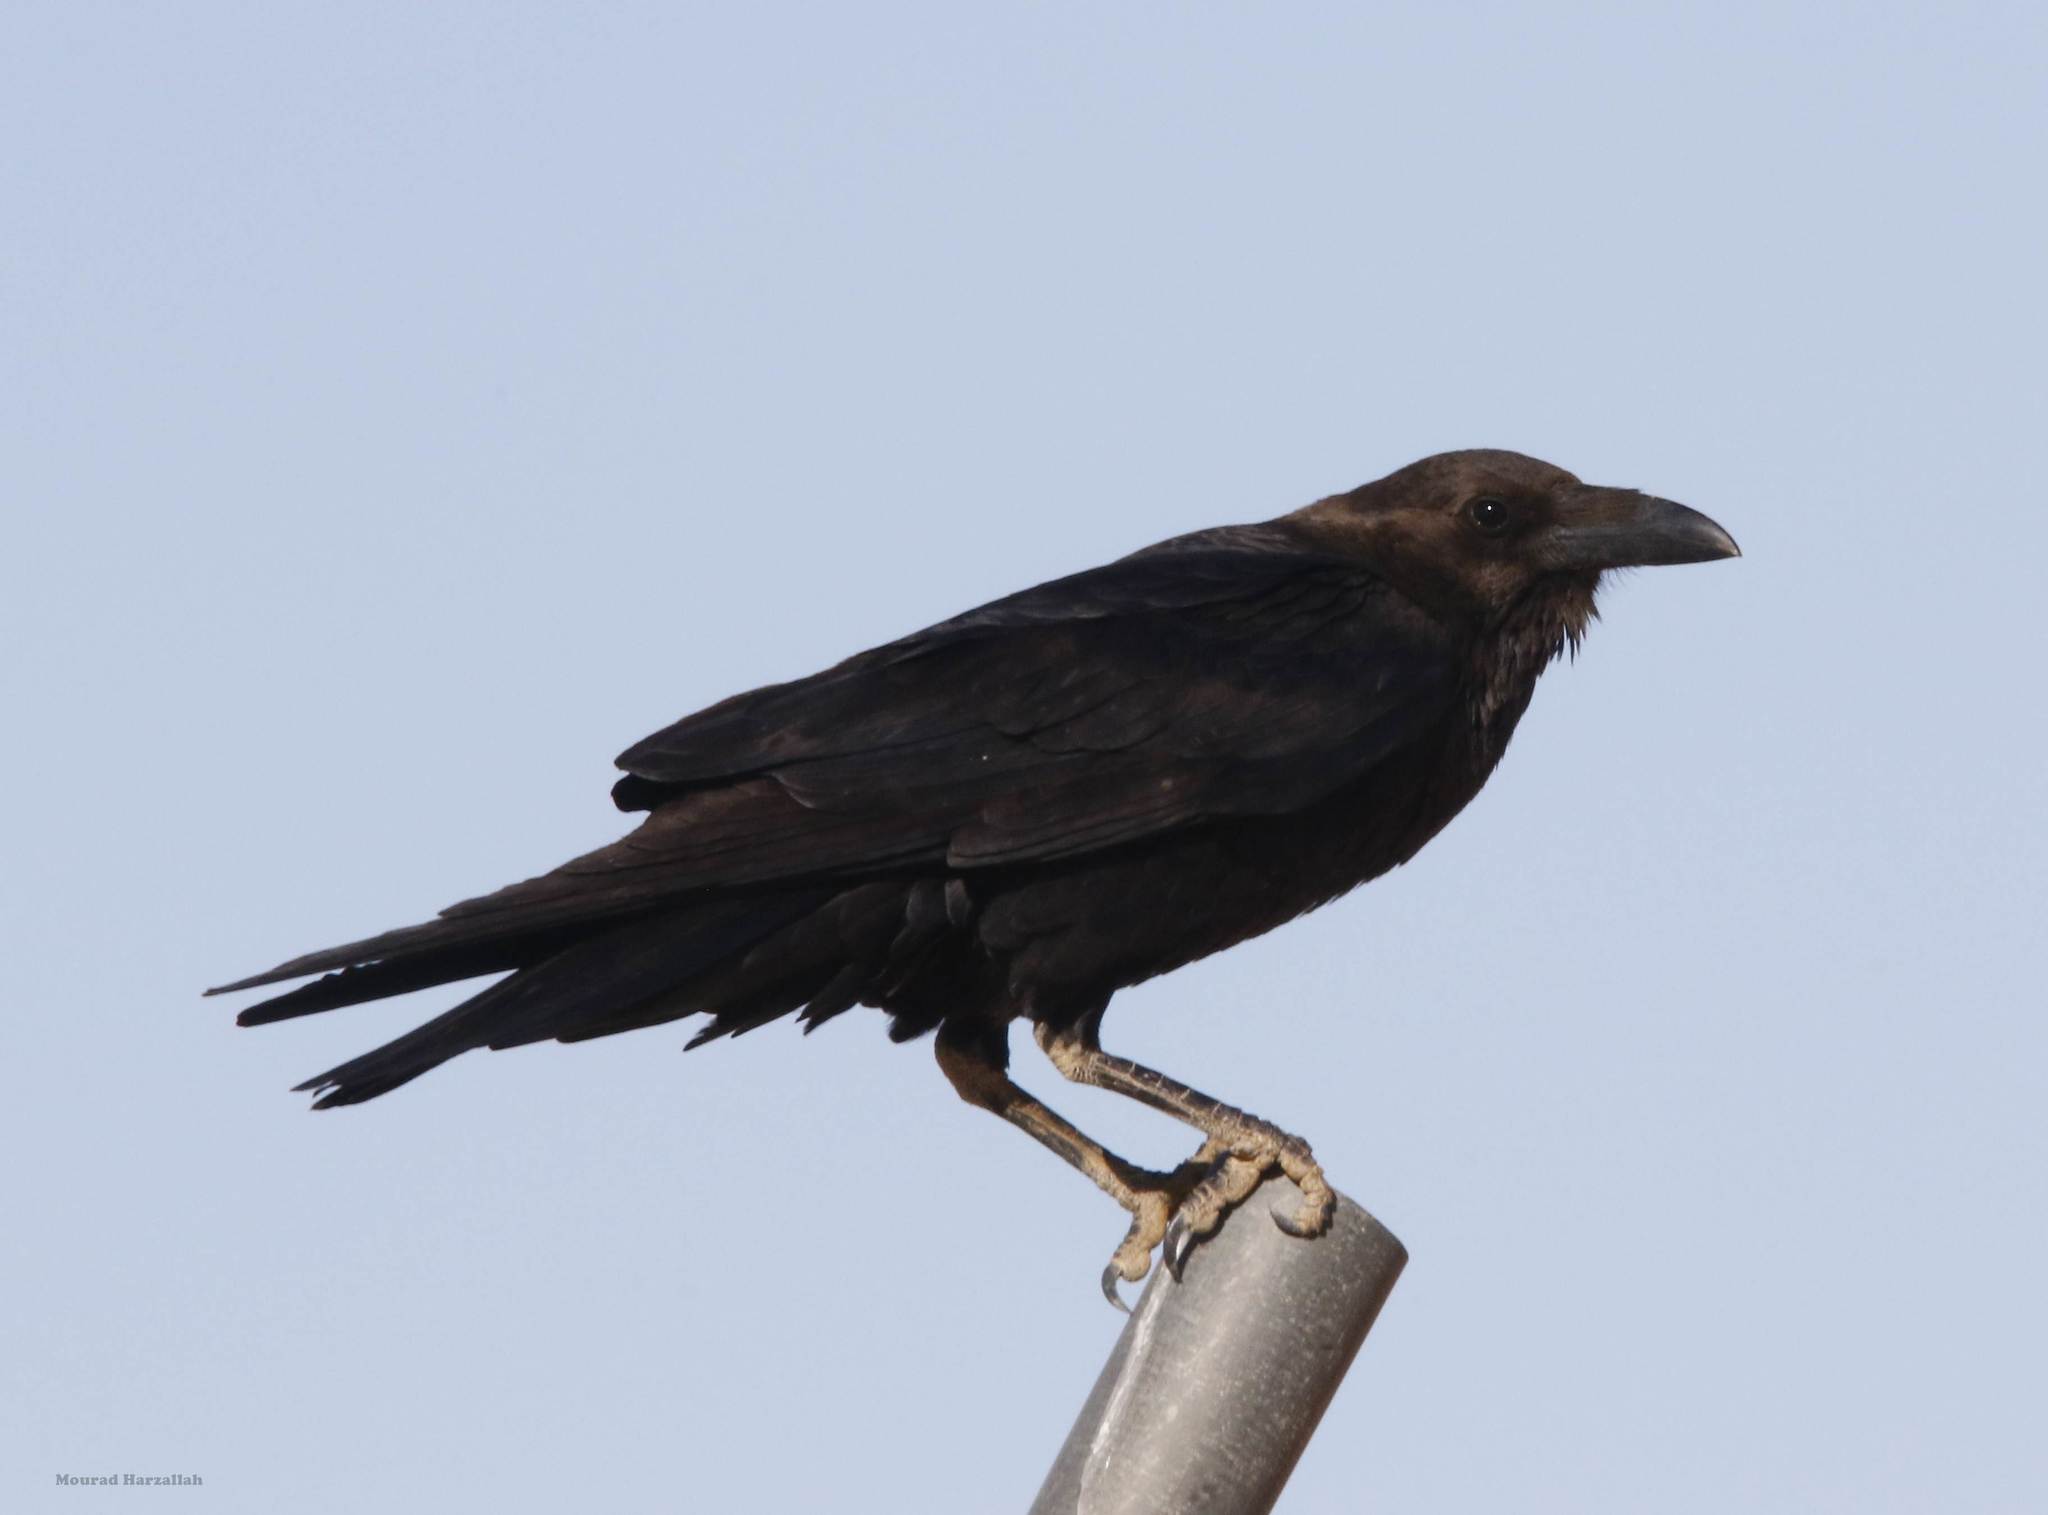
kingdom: Animalia
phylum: Chordata
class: Aves
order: Passeriformes
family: Corvidae
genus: Corvus
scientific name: Corvus ruficollis
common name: Brown-necked raven
